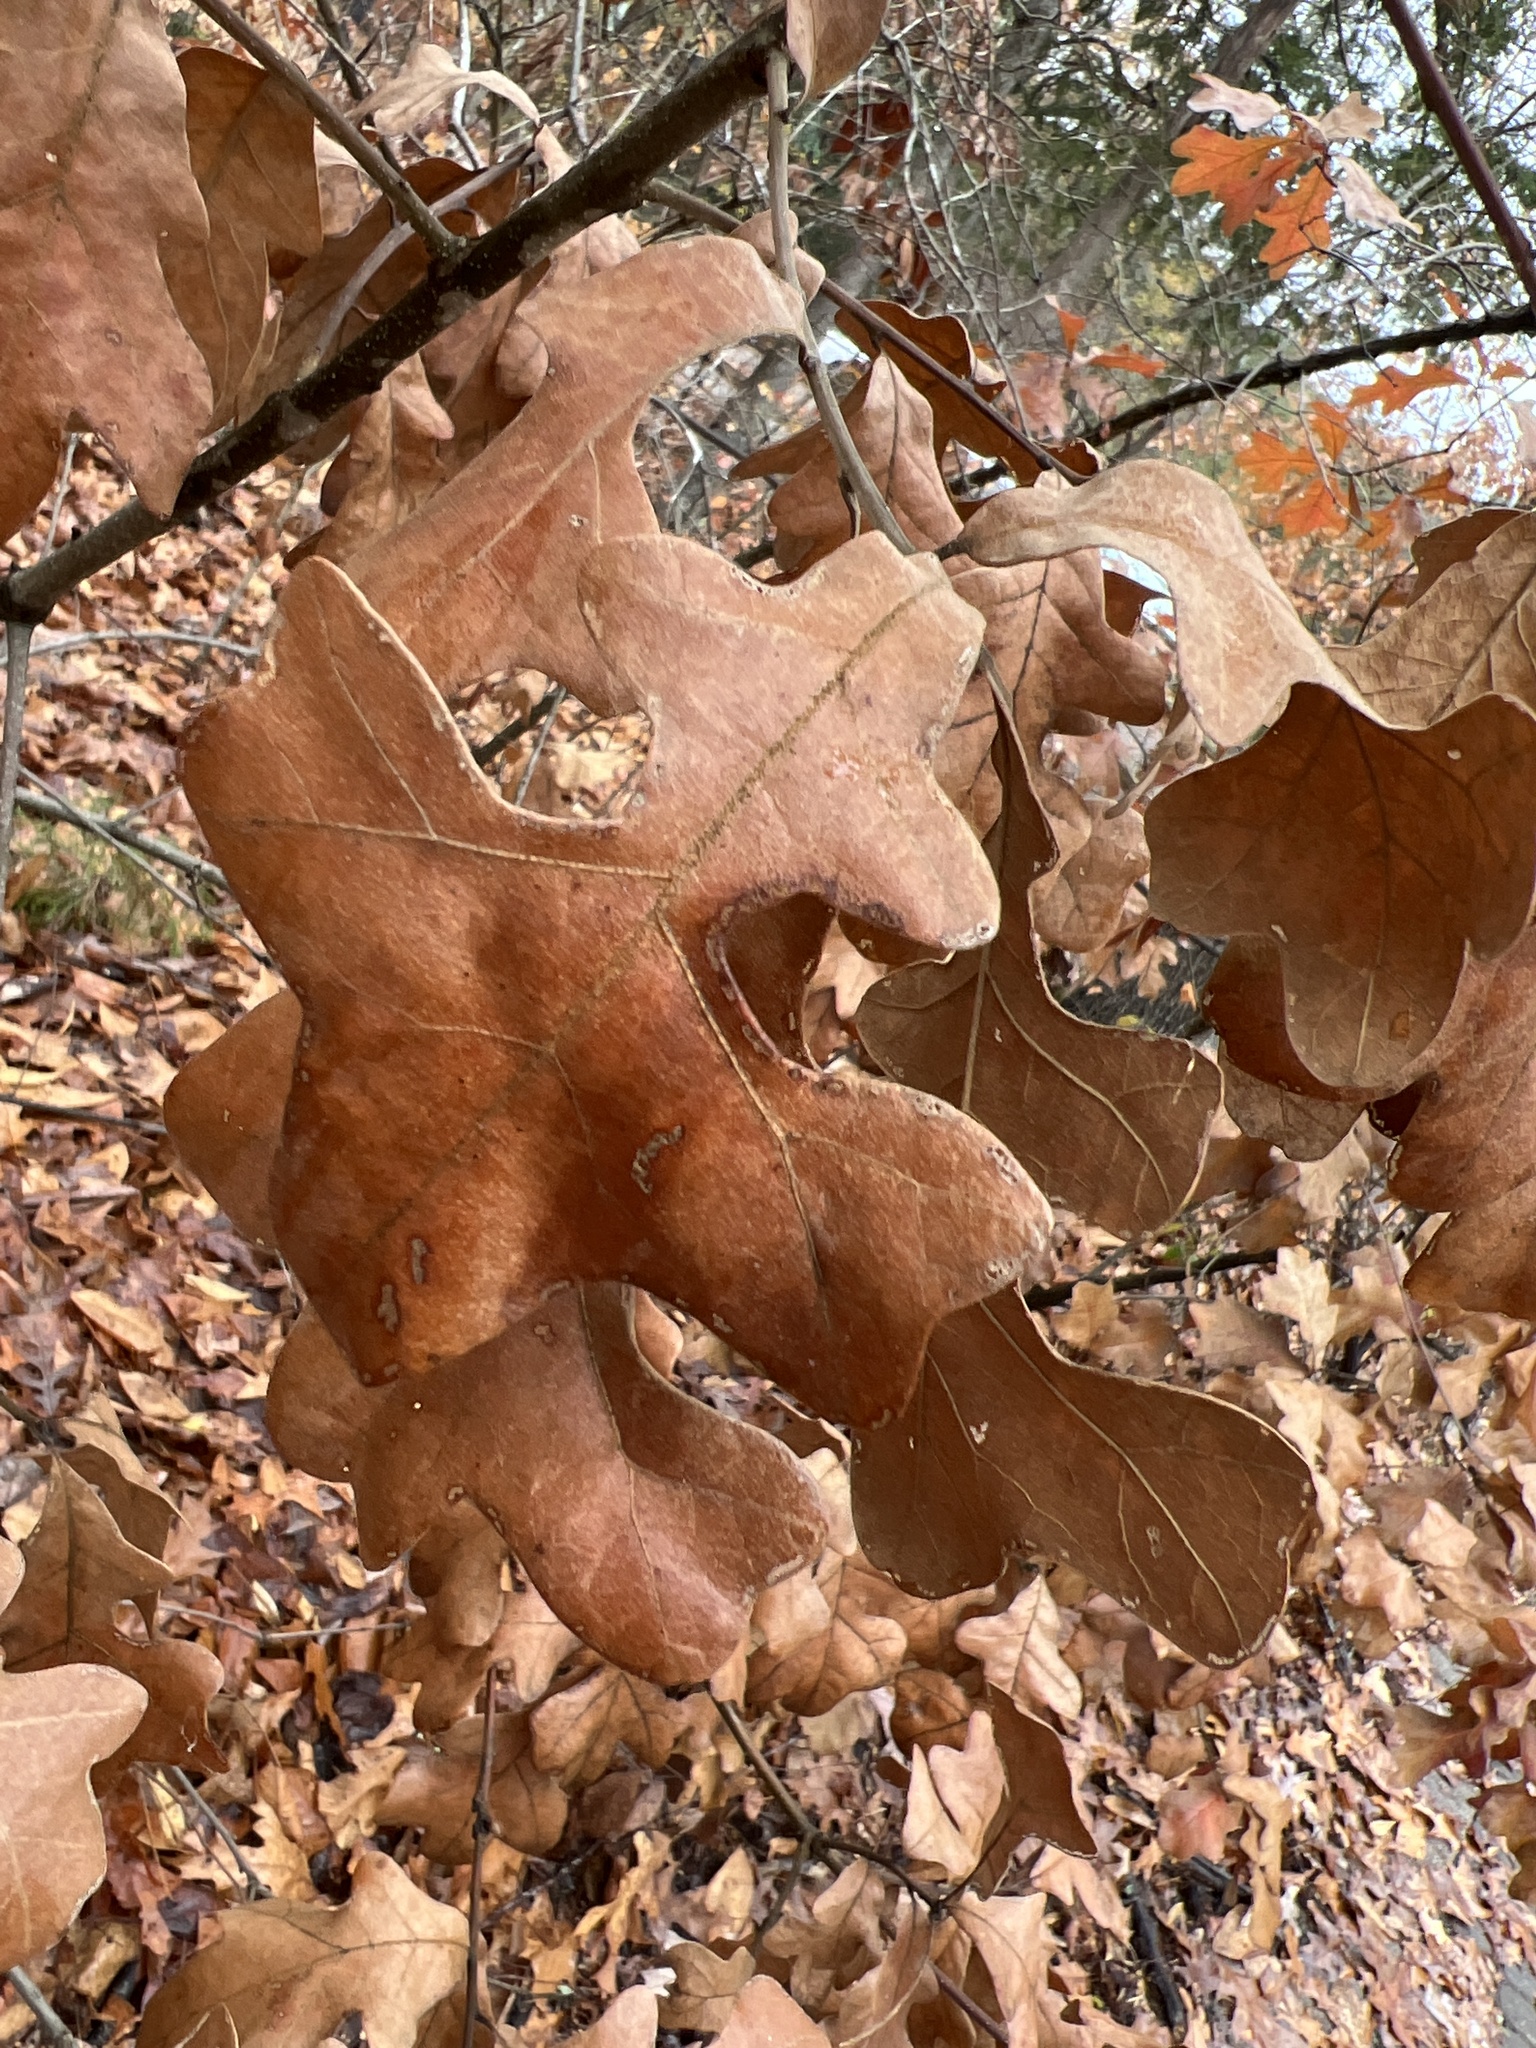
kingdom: Plantae
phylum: Tracheophyta
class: Magnoliopsida
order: Fagales
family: Fagaceae
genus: Quercus
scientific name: Quercus stellata
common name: Post oak
